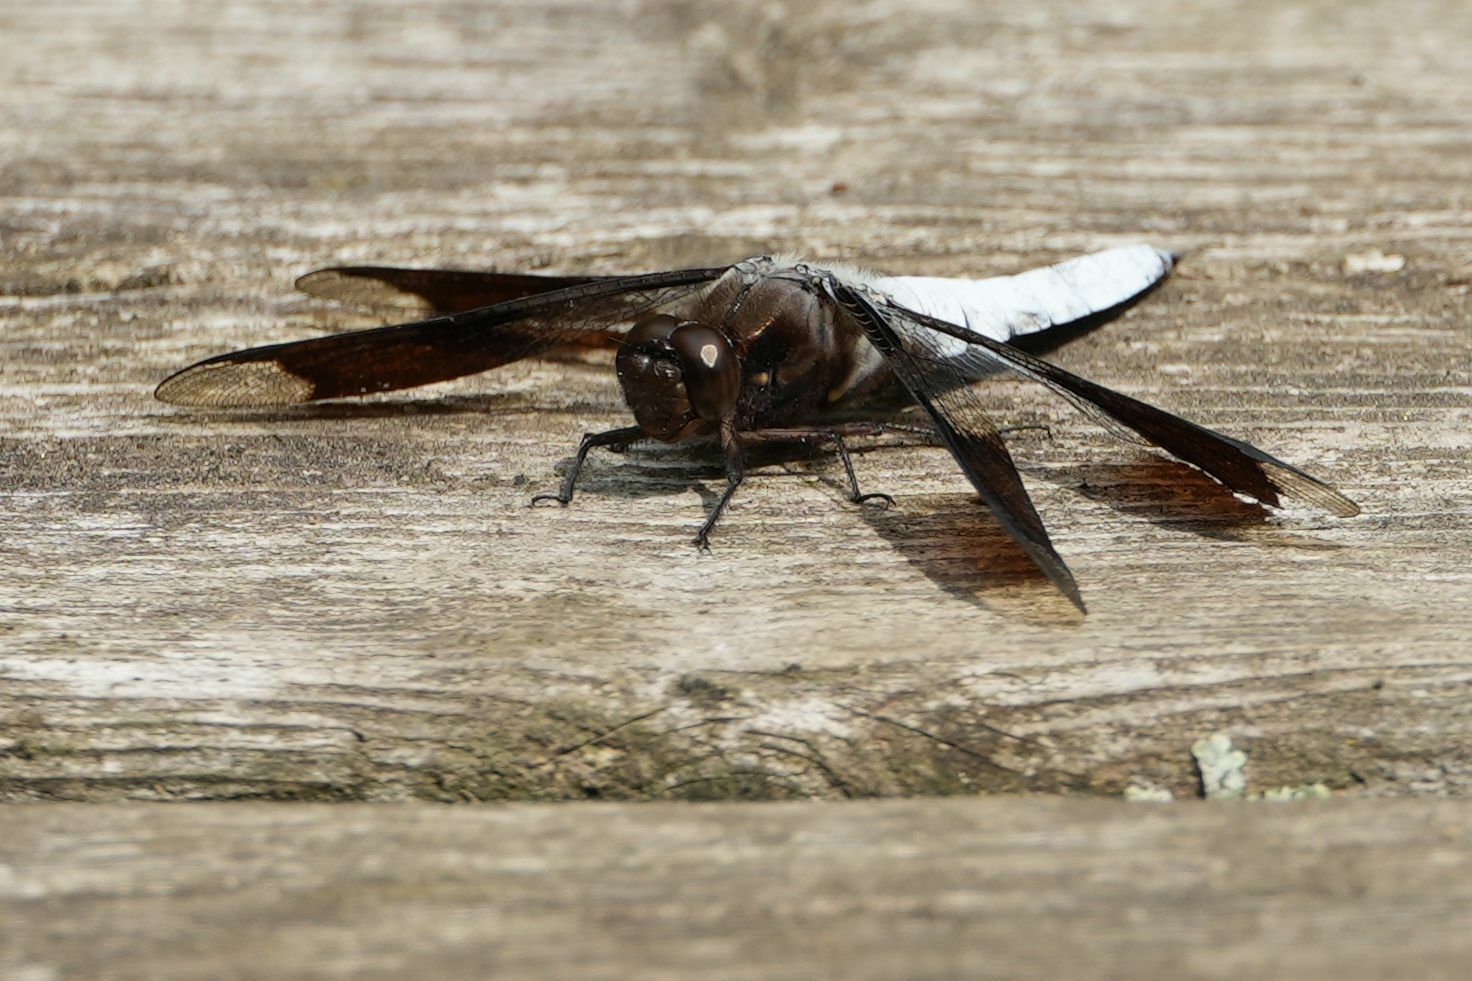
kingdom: Animalia
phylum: Arthropoda
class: Insecta
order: Odonata
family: Libellulidae
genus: Plathemis
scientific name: Plathemis lydia
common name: Common whitetail
